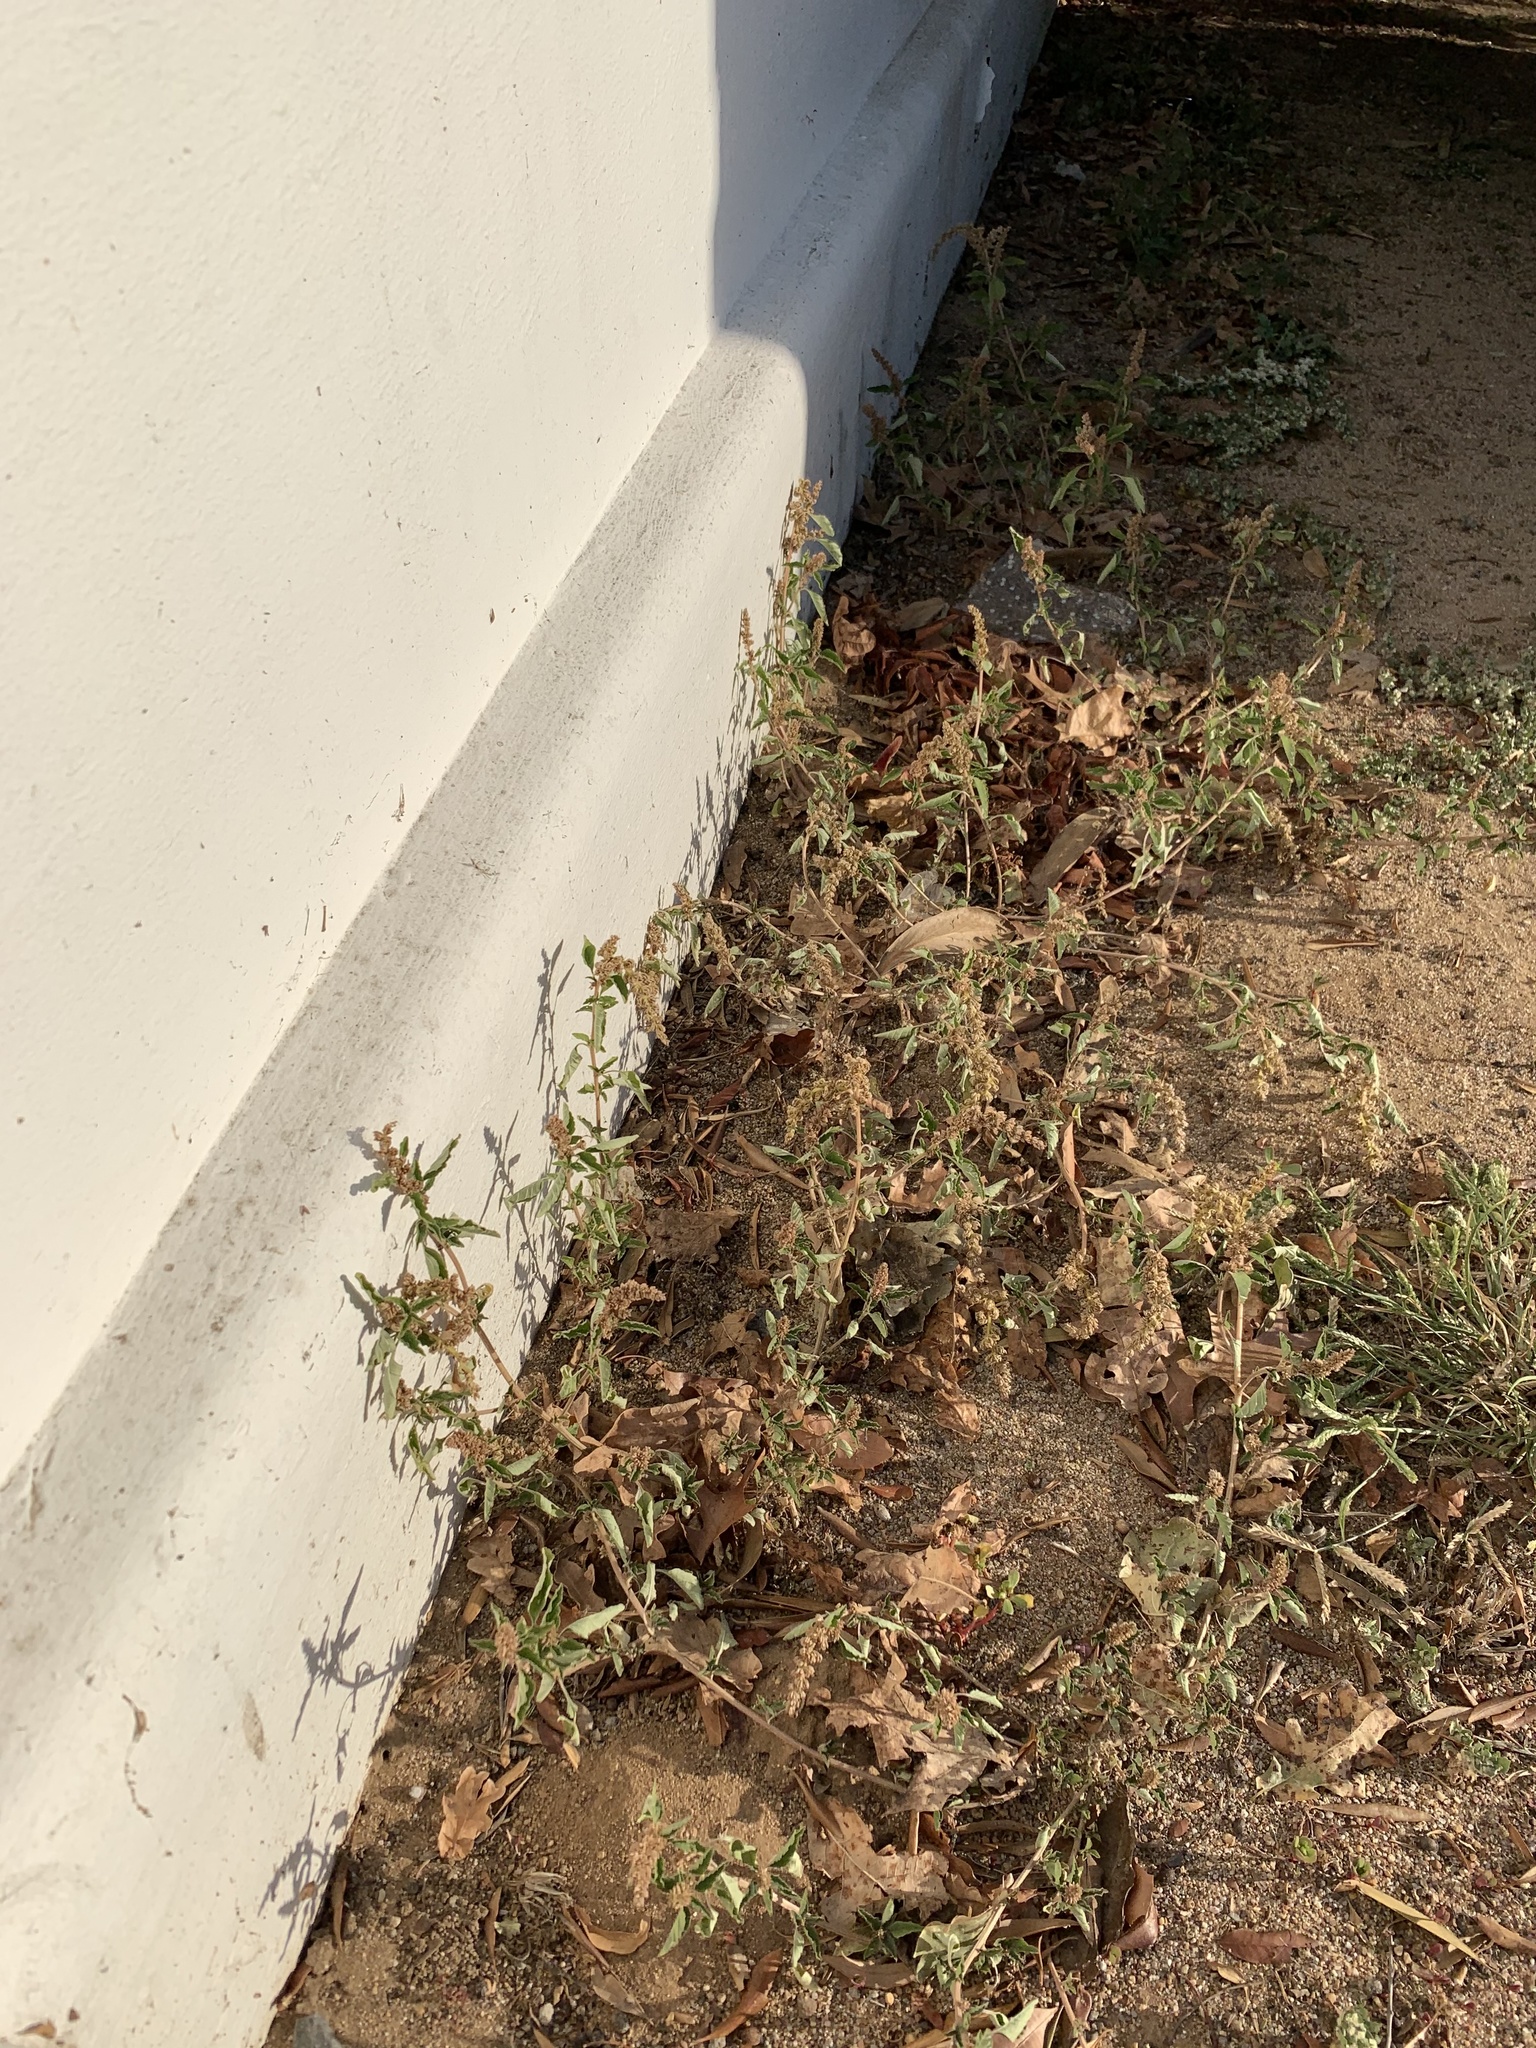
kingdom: Plantae
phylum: Tracheophyta
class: Magnoliopsida
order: Caryophyllales
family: Amaranthaceae
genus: Amaranthus
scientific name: Amaranthus deflexus
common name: Perennial pigweed
